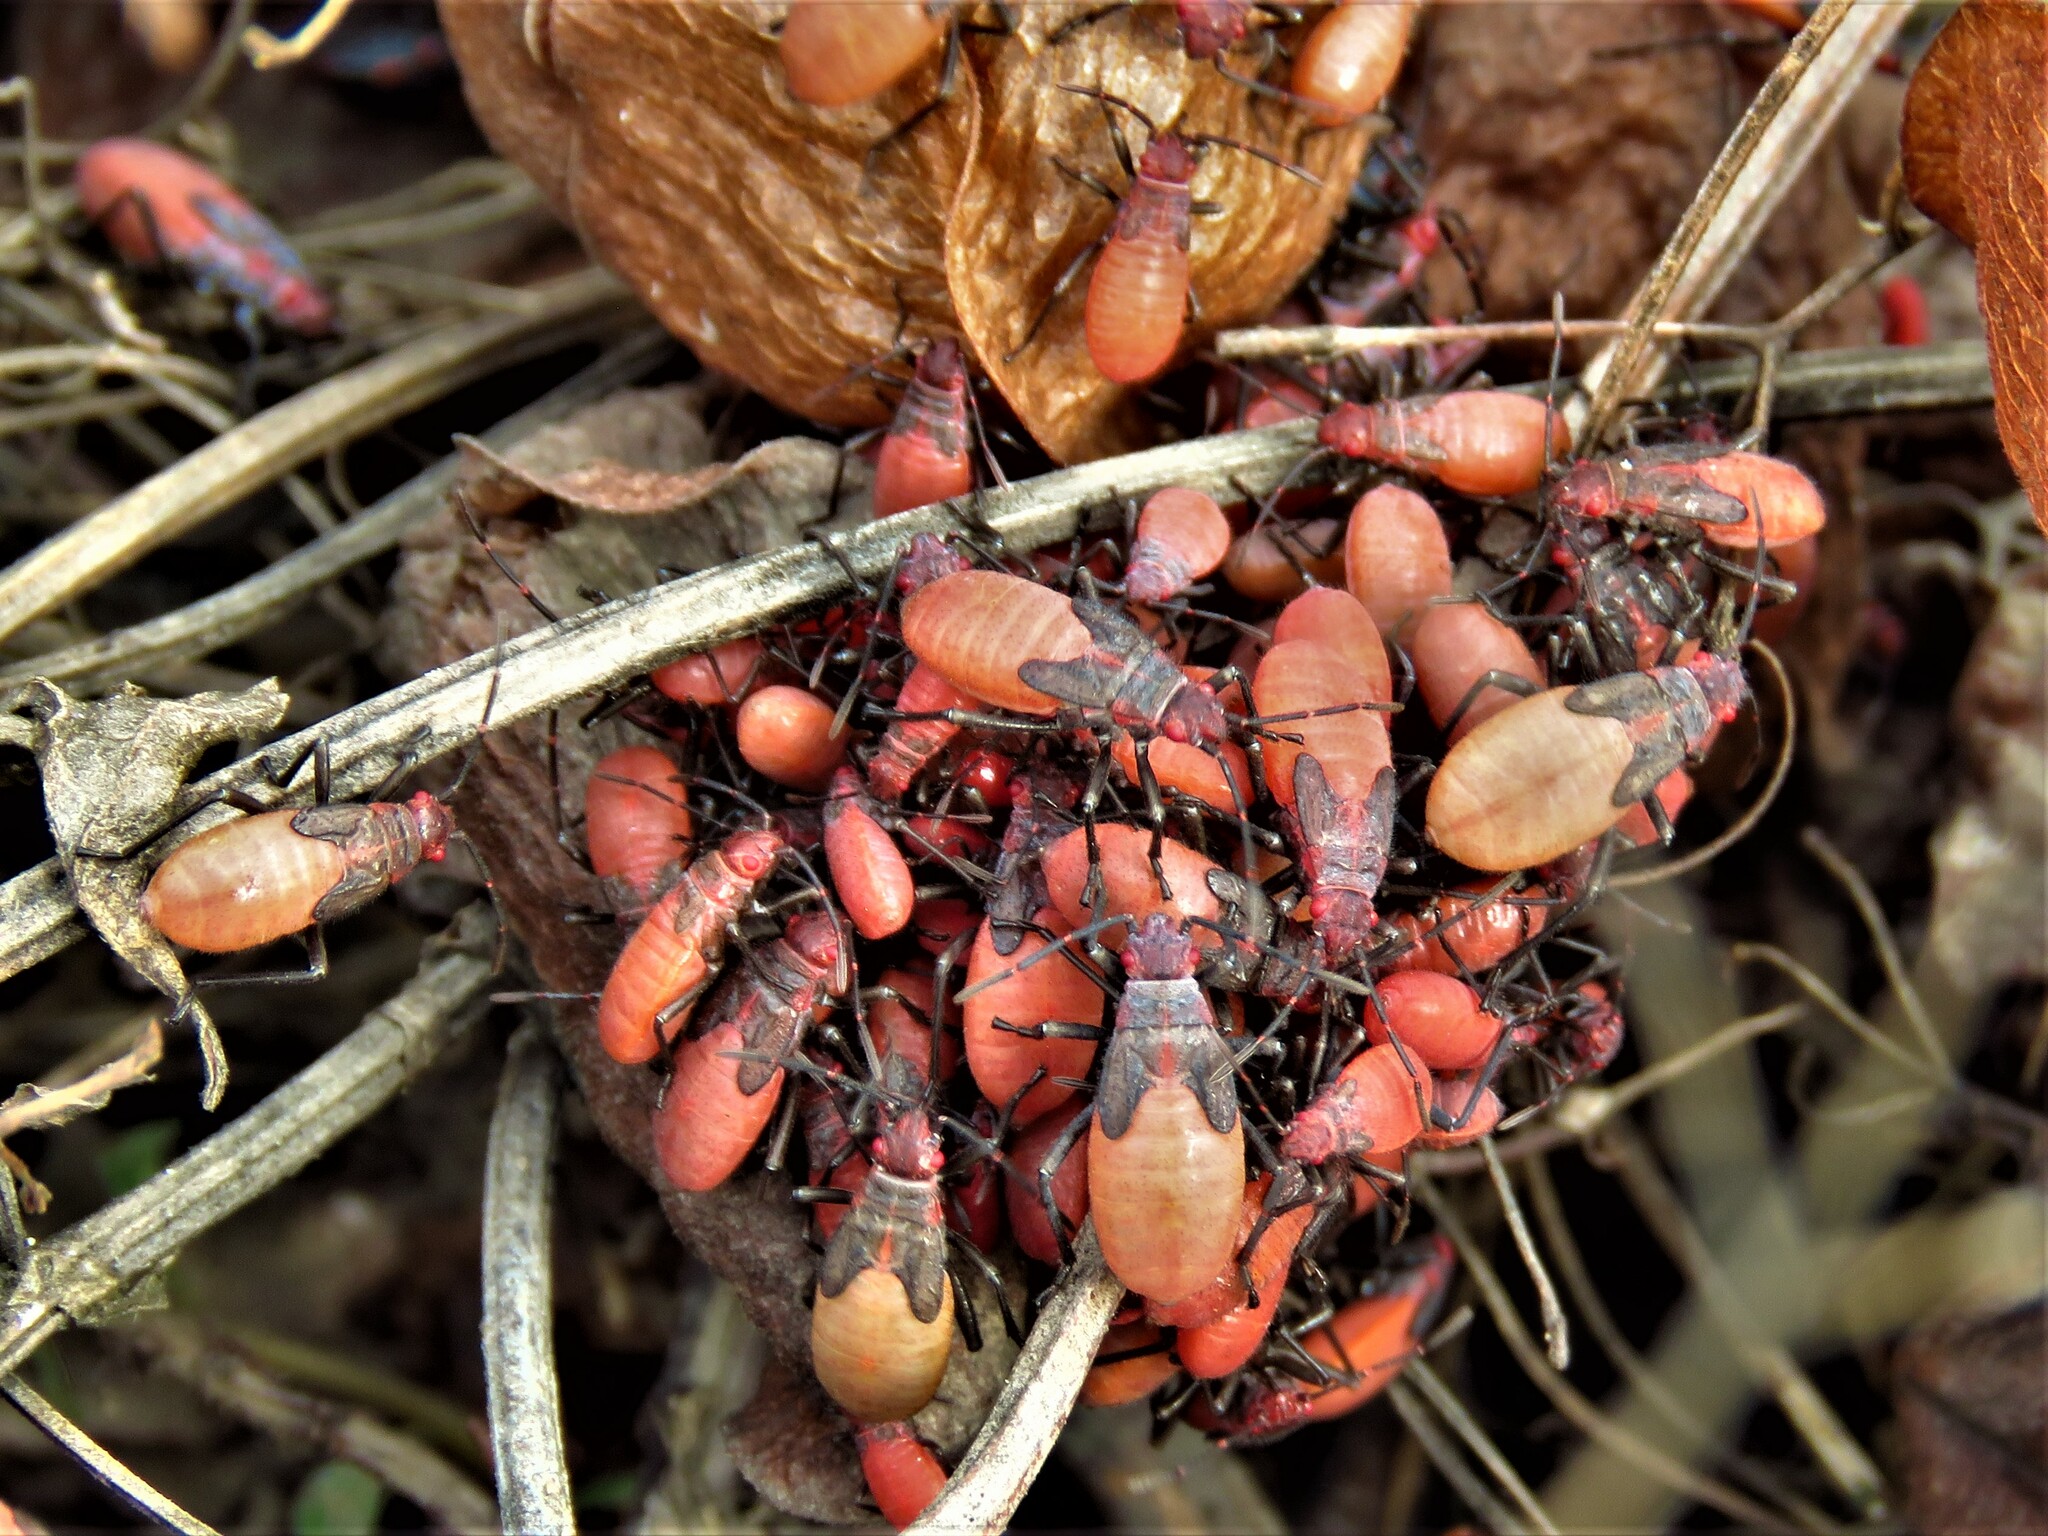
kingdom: Animalia
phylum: Arthropoda
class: Insecta
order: Hemiptera
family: Rhopalidae
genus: Jadera
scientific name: Jadera haematoloma
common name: Red-shouldered bug
